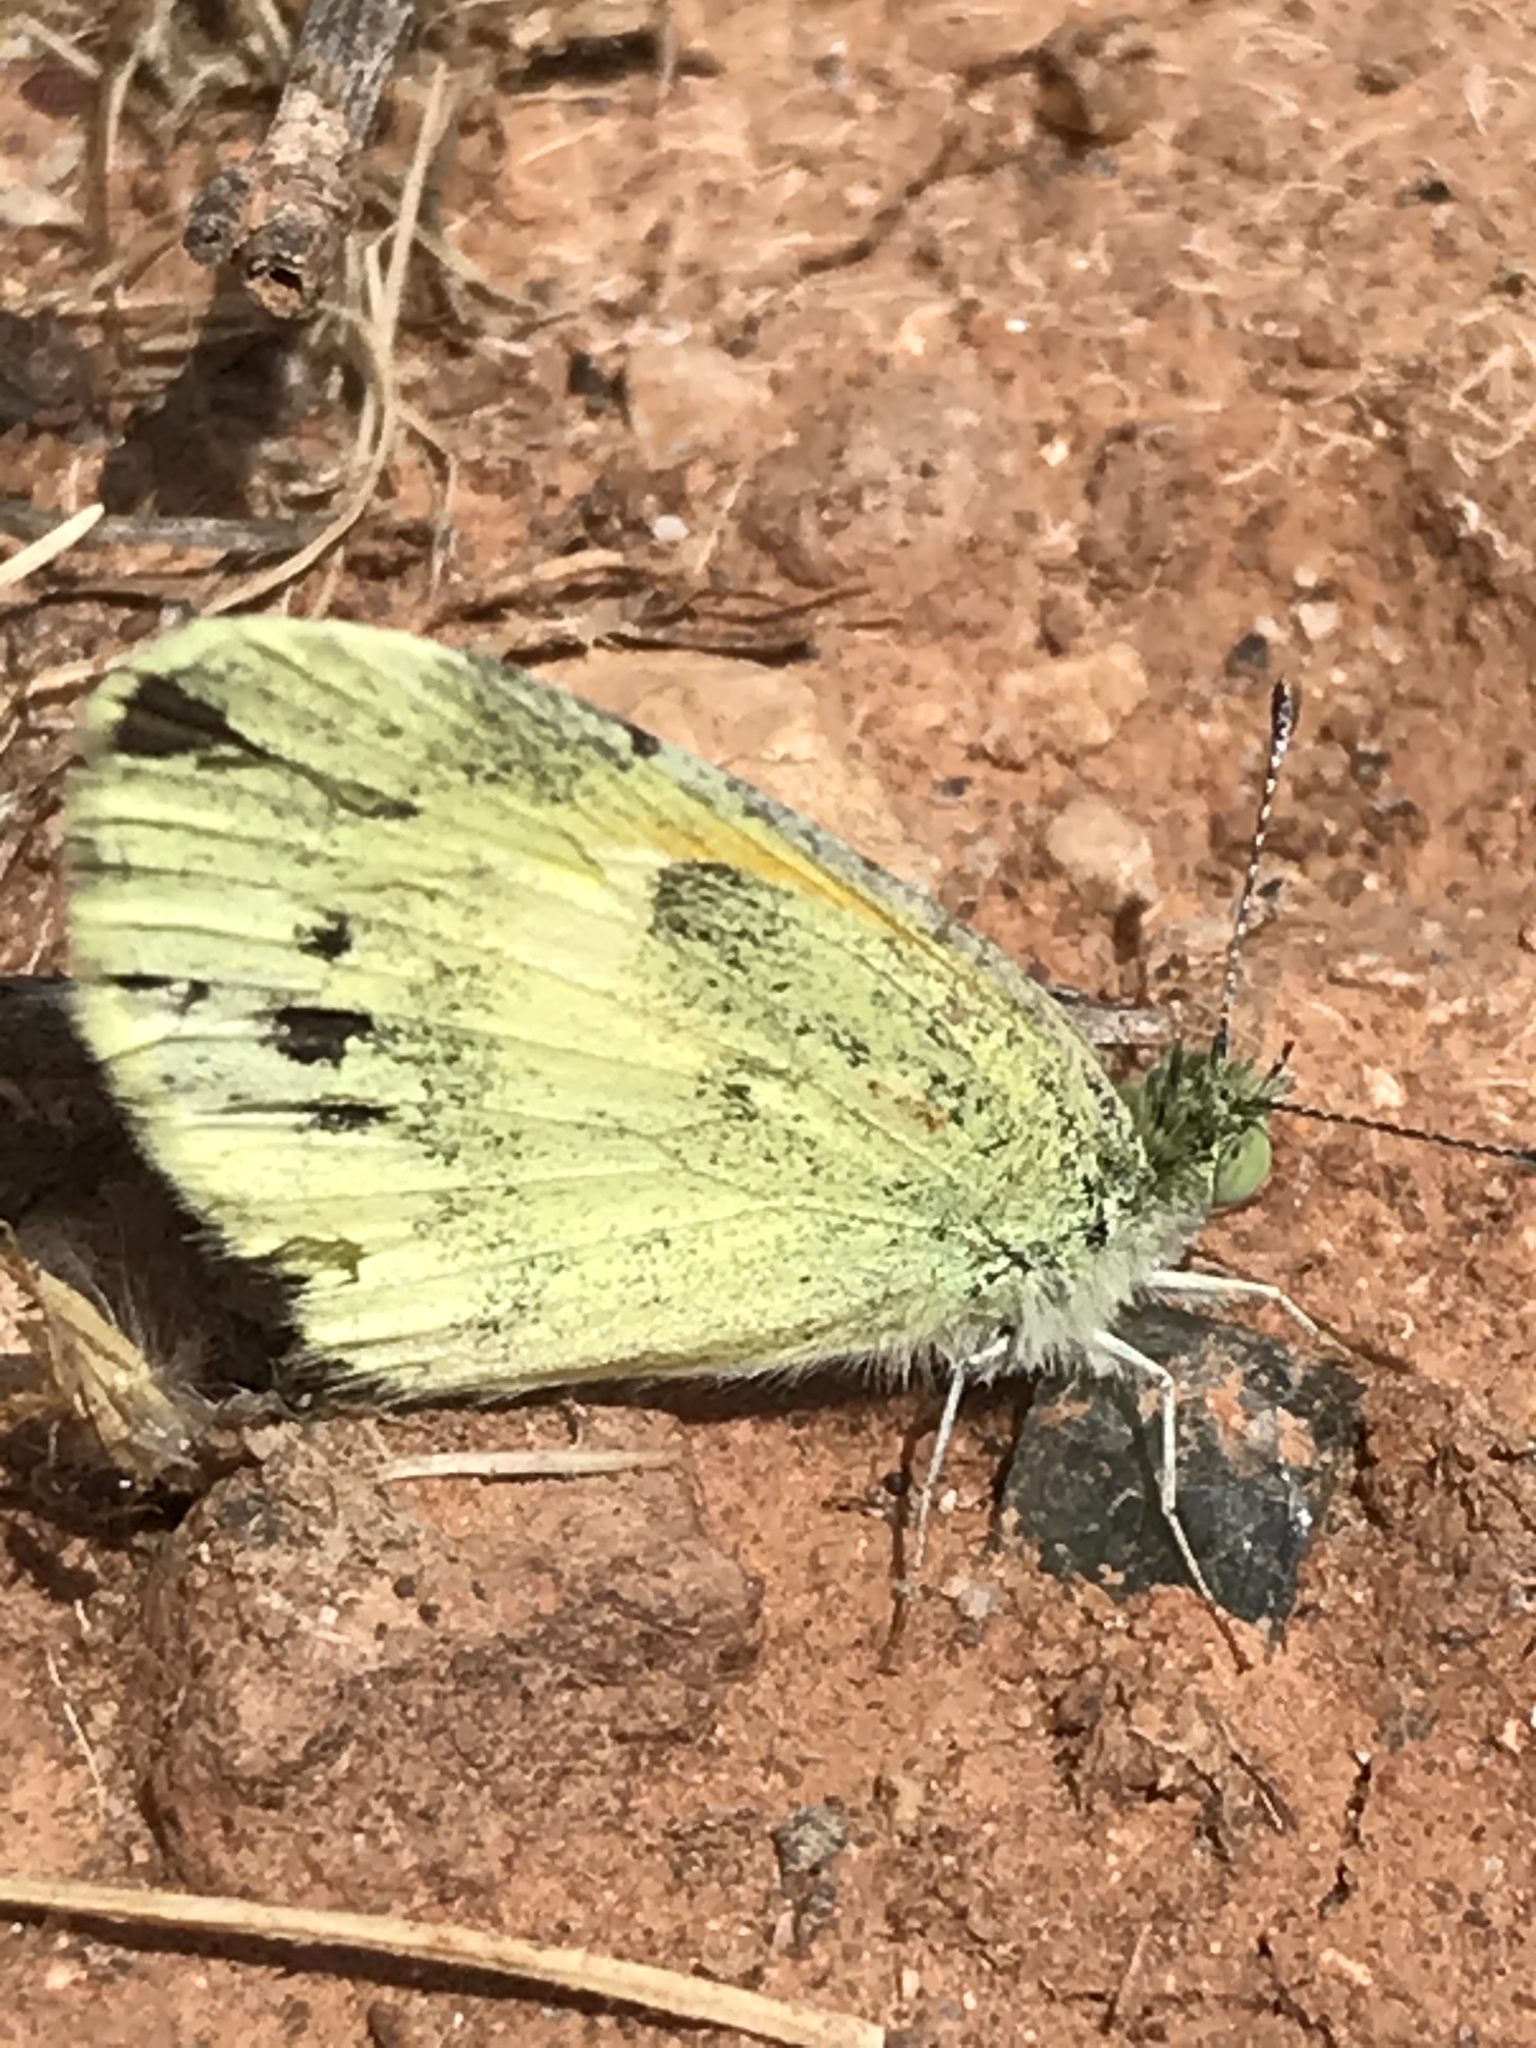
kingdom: Animalia
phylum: Arthropoda
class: Insecta
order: Lepidoptera
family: Pieridae
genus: Nathalis
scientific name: Nathalis iole
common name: Dainty sulphur
